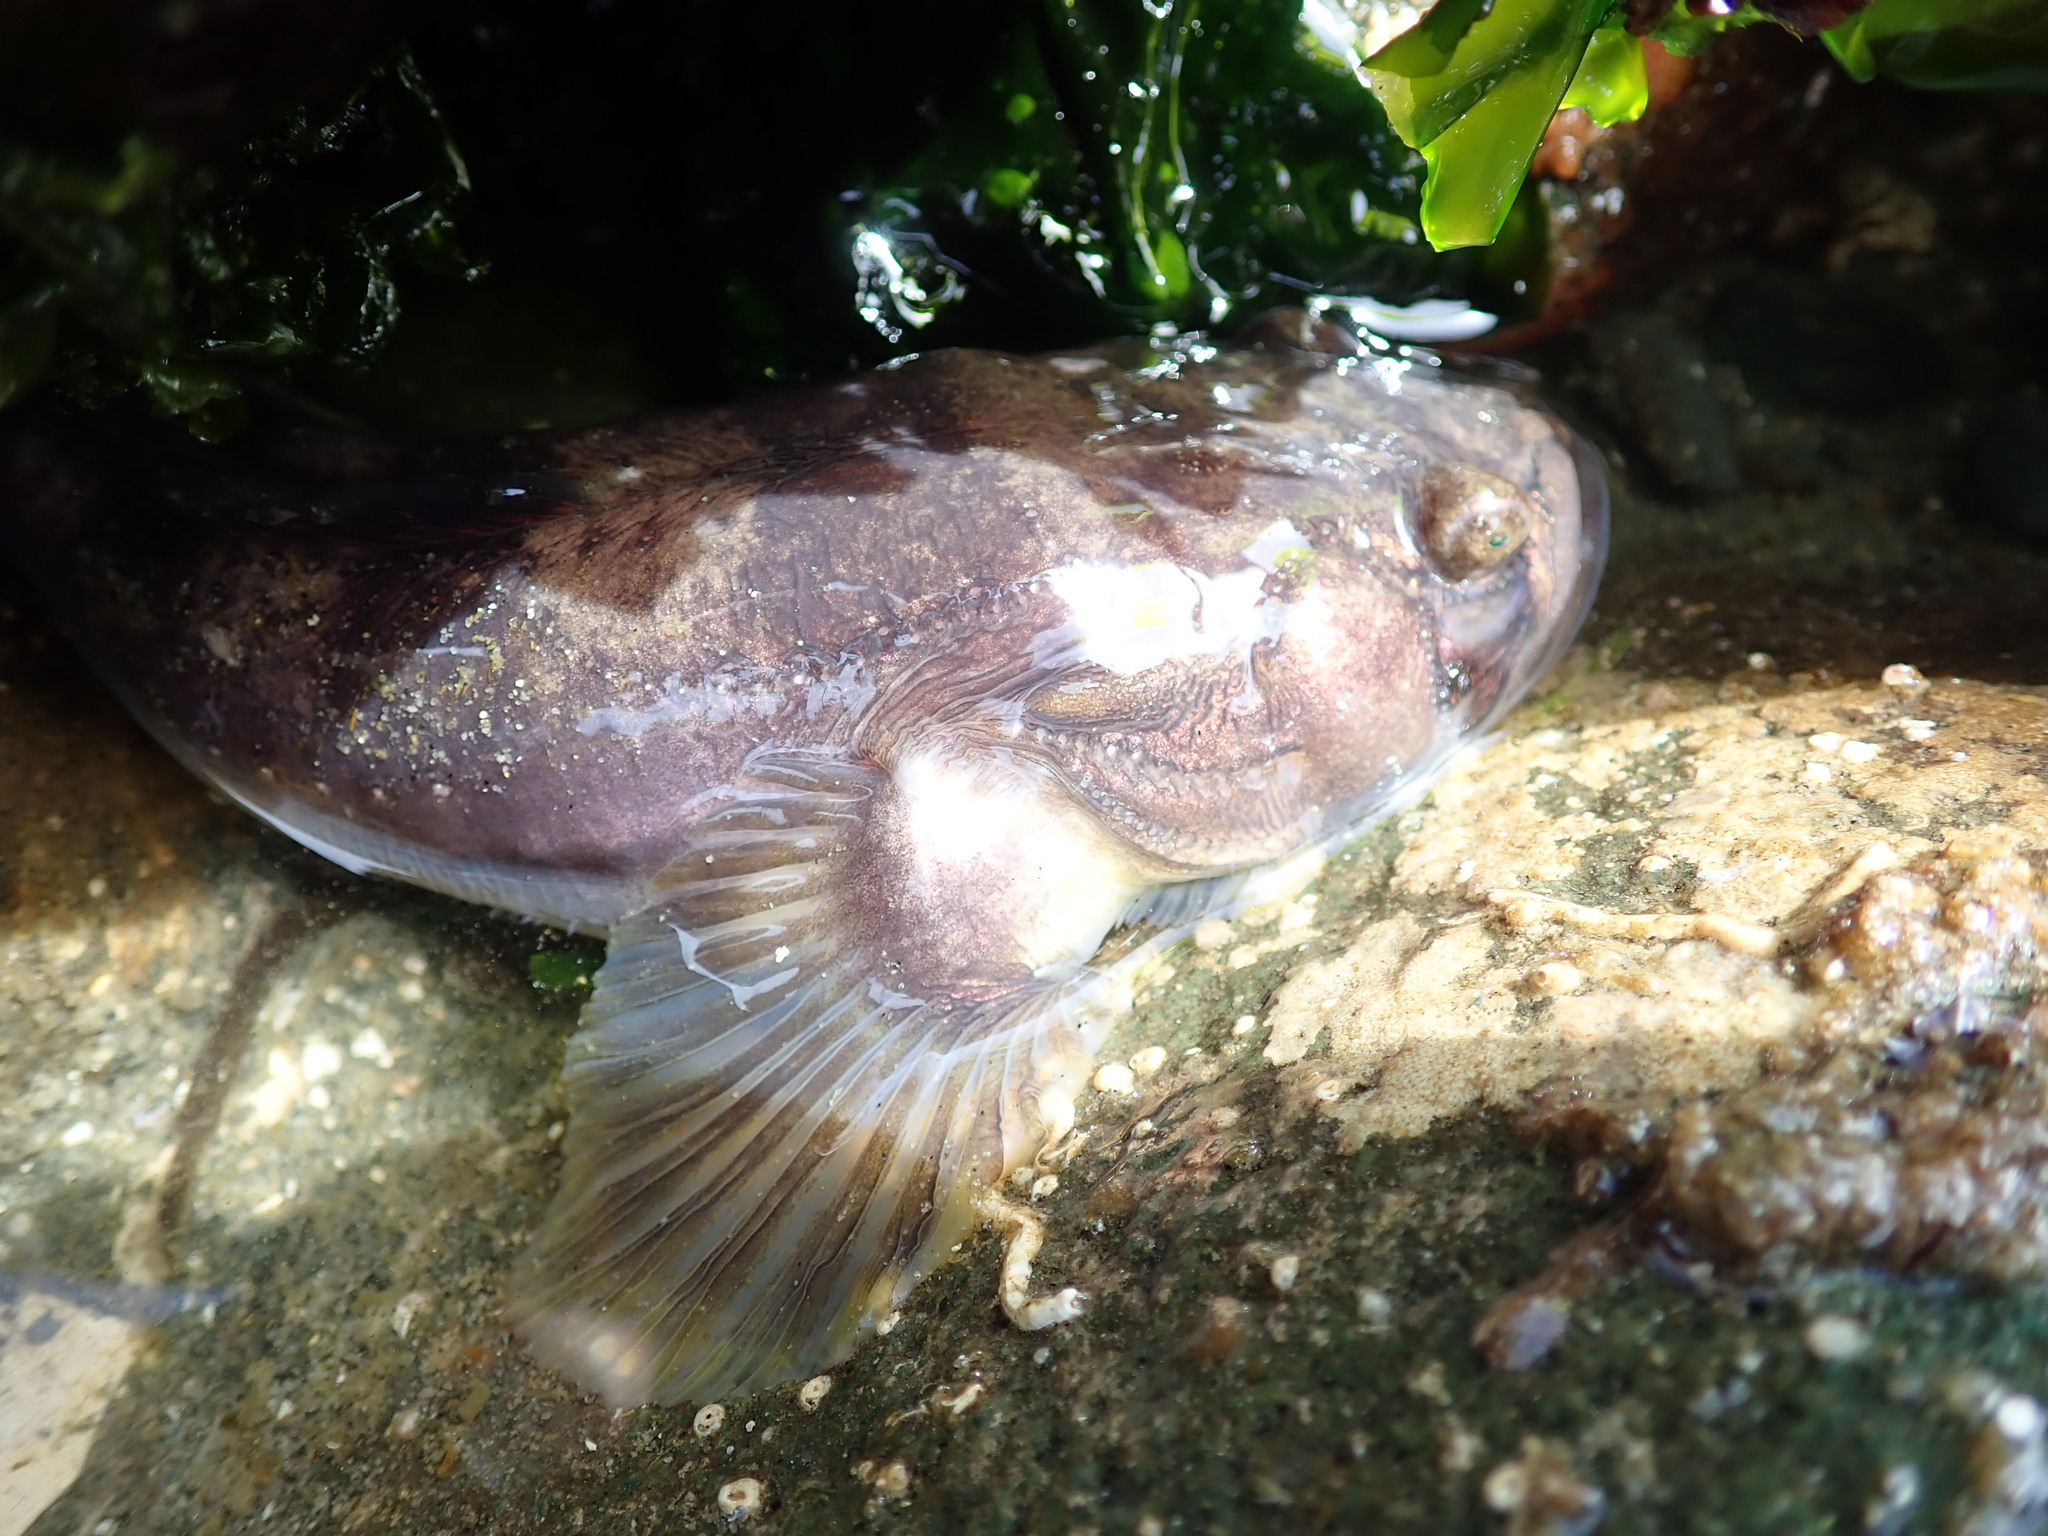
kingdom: Animalia
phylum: Chordata
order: Batrachoidiformes
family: Batrachoididae
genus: Porichthys
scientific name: Porichthys notatus
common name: Plainfin midshipman
